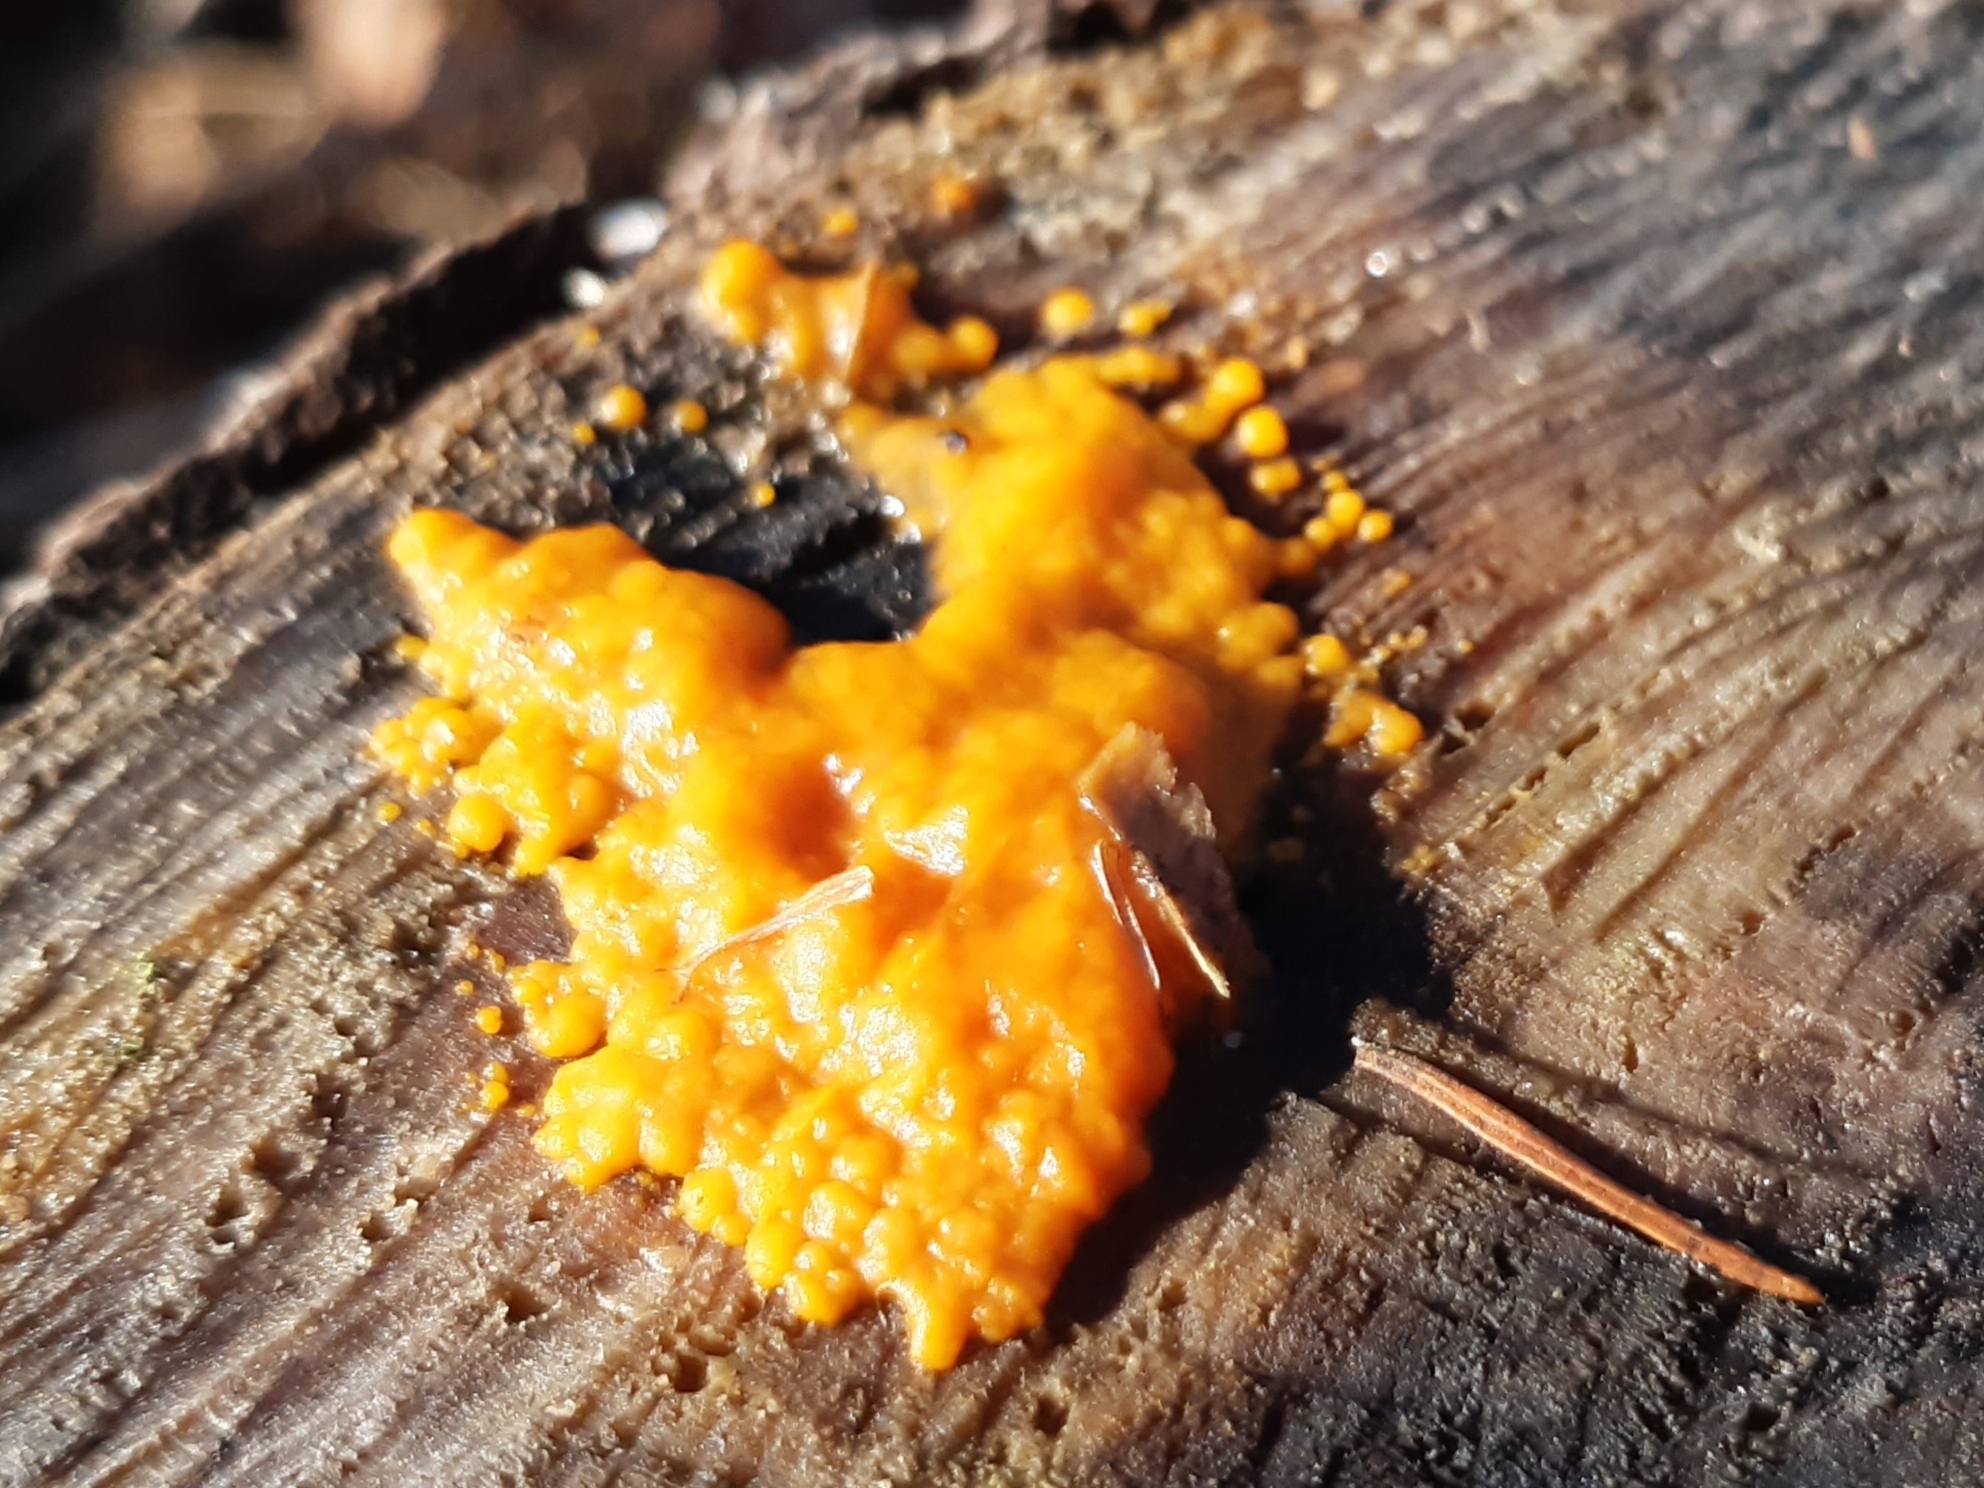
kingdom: Fungi
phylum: Basidiomycota
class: Dacrymycetes
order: Dacrymycetales
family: Dacrymycetaceae
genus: Dacrymyces
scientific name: Dacrymyces stillatus
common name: Common jelly spot
